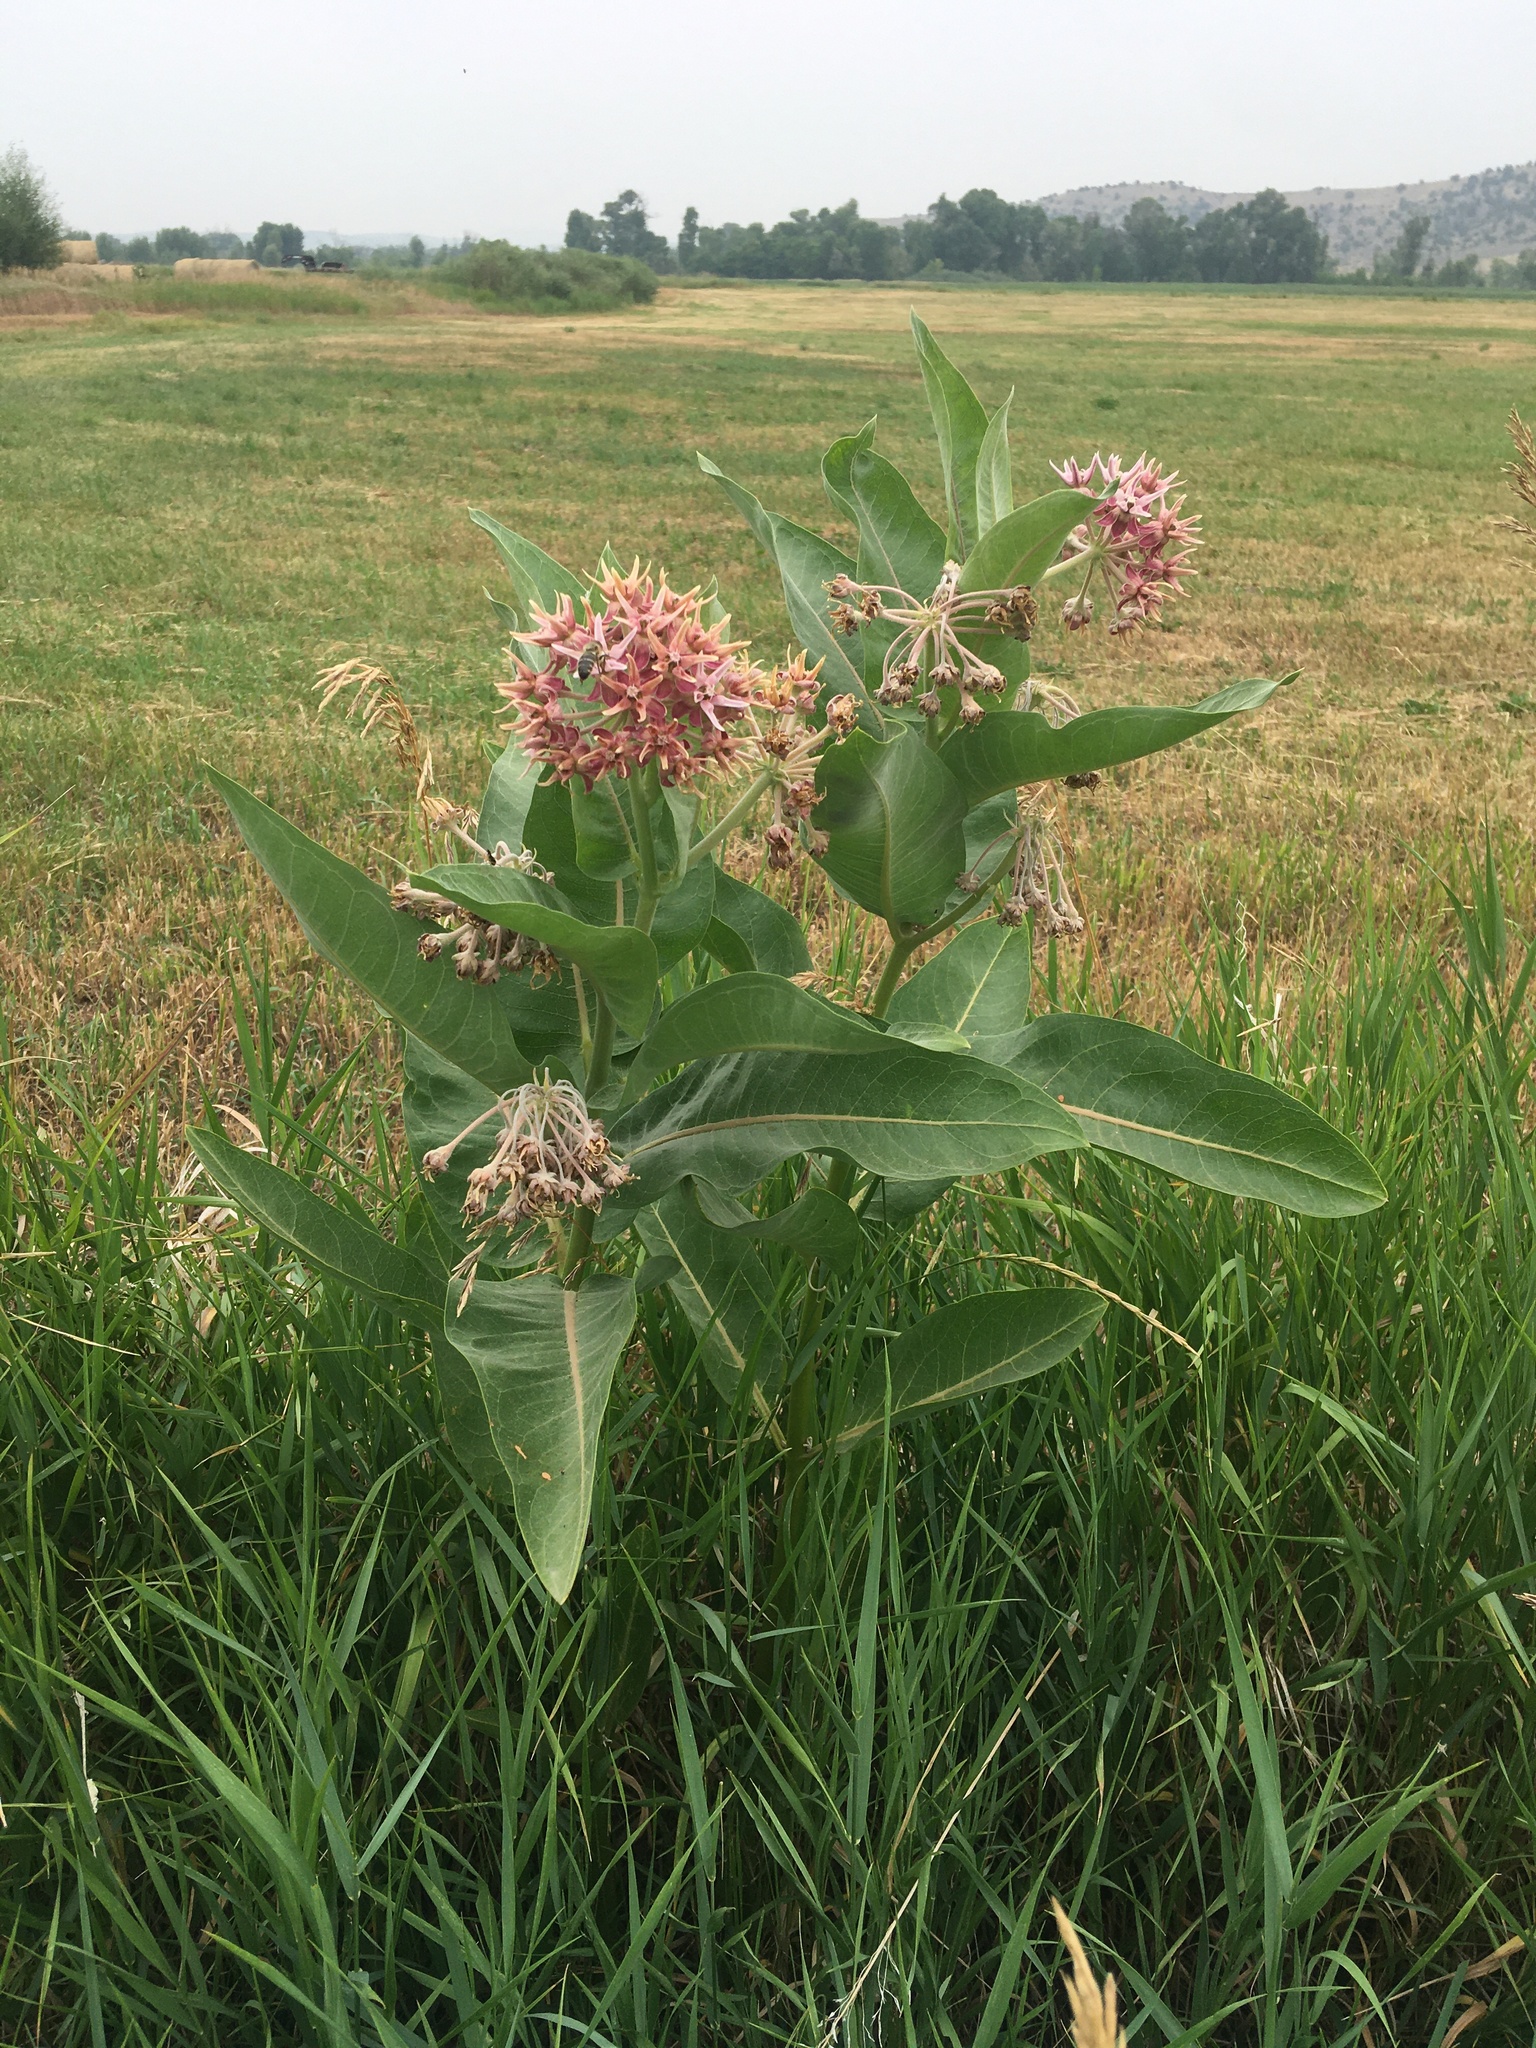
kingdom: Plantae
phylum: Tracheophyta
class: Magnoliopsida
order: Gentianales
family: Apocynaceae
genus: Asclepias
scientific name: Asclepias speciosa
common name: Showy milkweed
